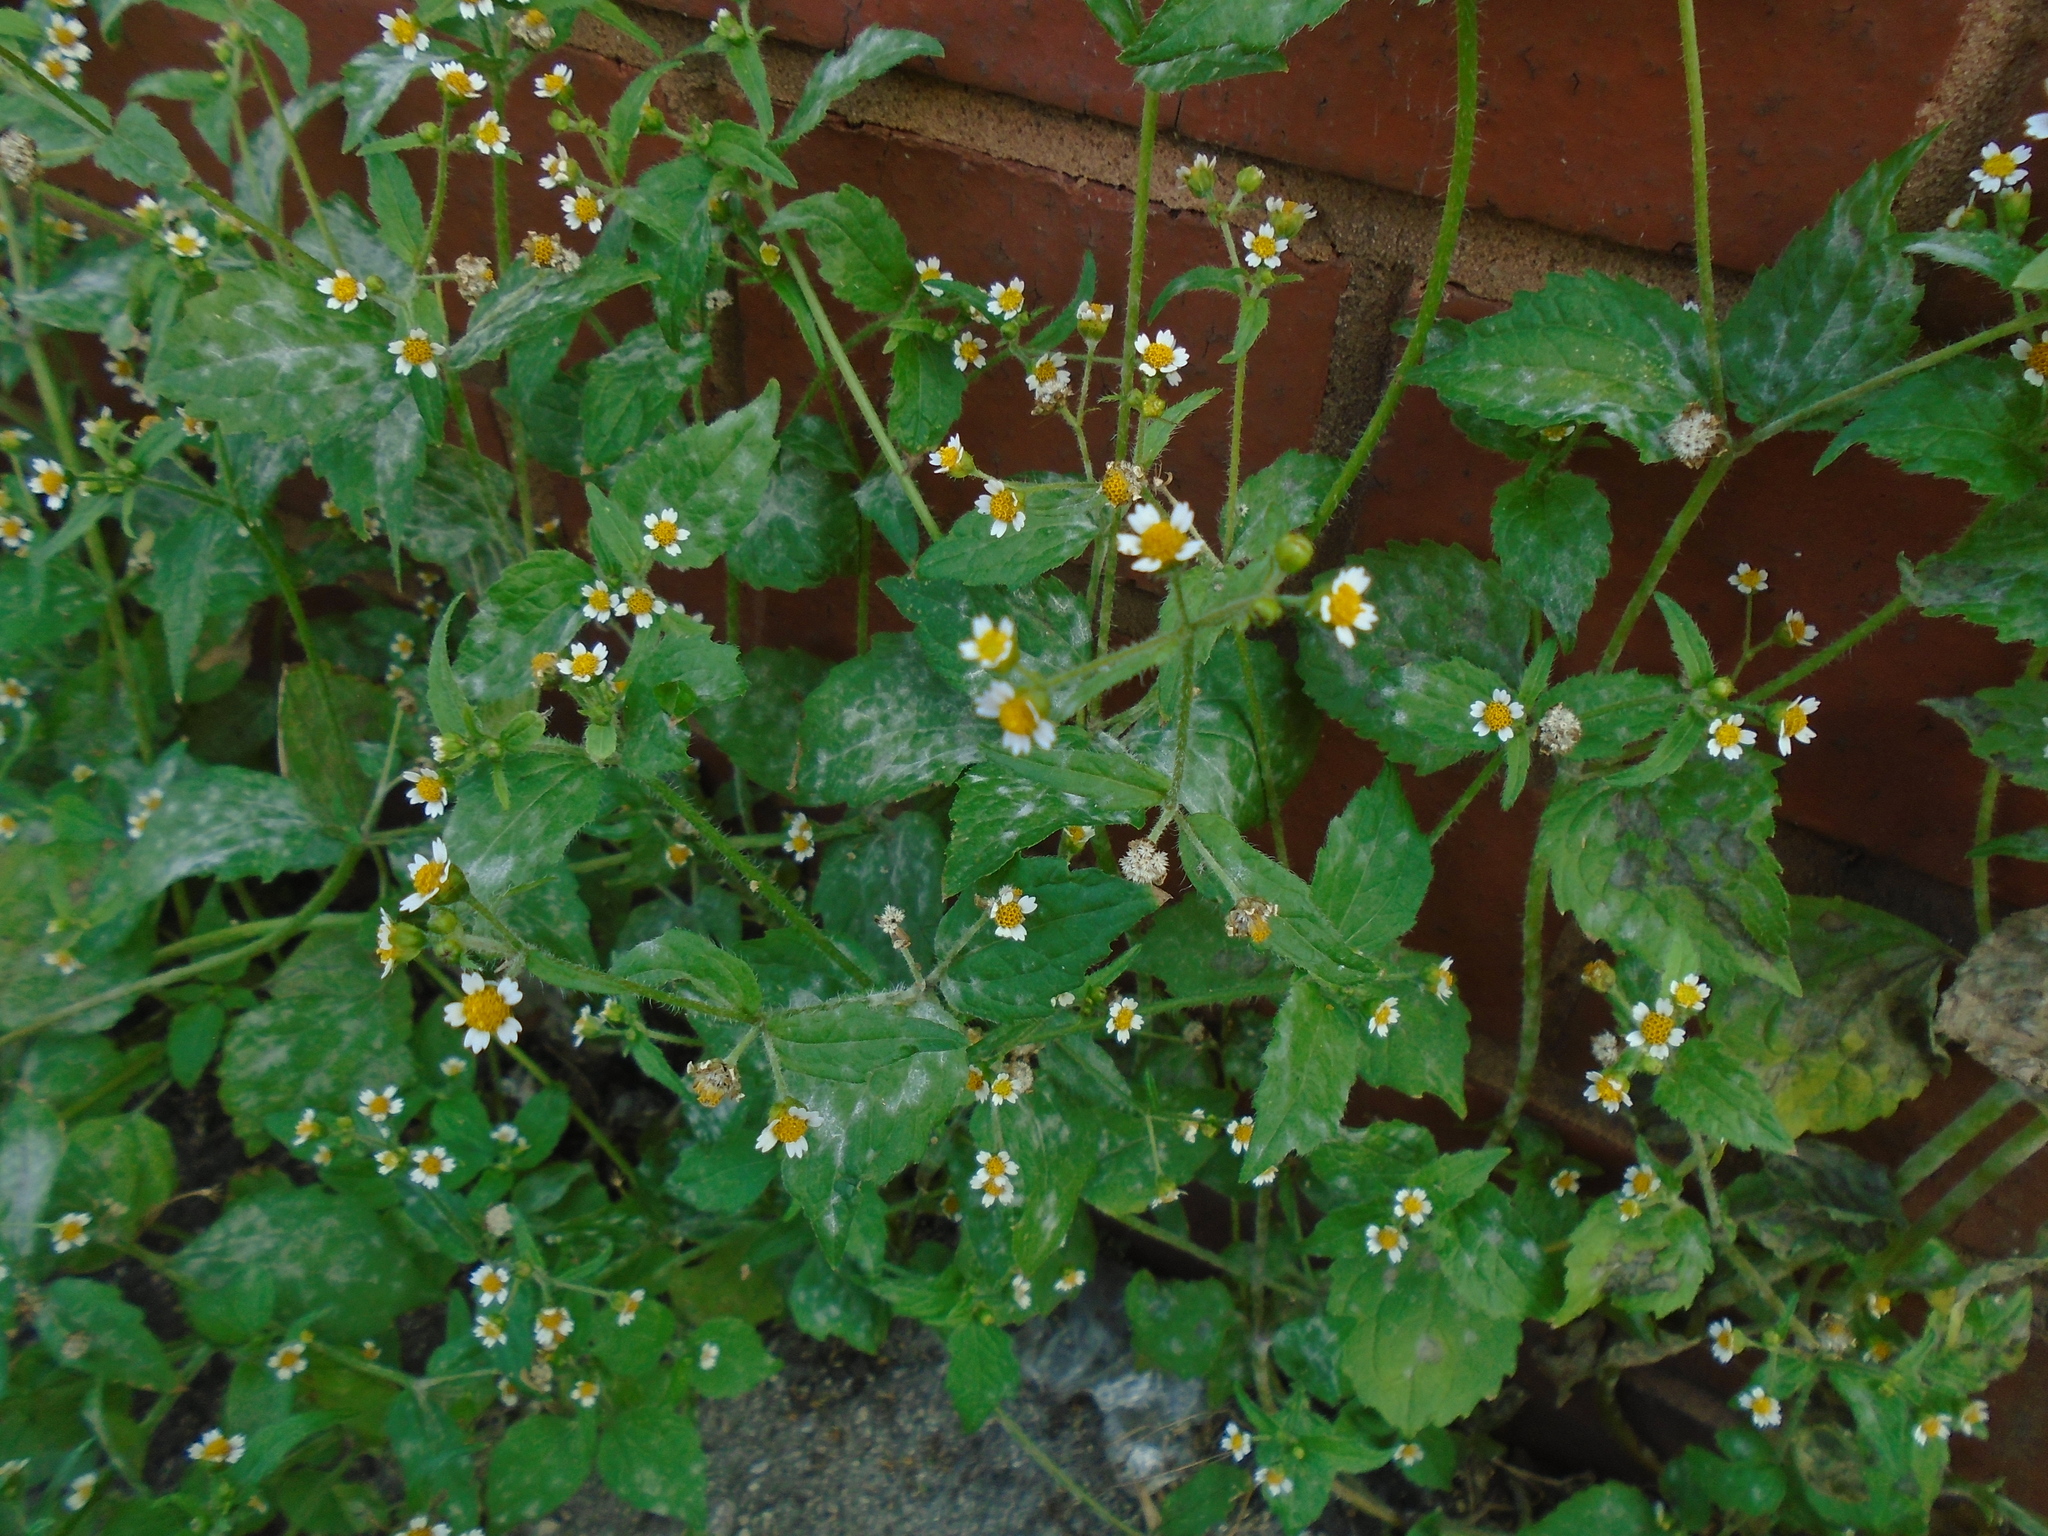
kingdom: Plantae
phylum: Tracheophyta
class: Magnoliopsida
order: Asterales
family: Asteraceae
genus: Galinsoga
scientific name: Galinsoga quadriradiata
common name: Shaggy soldier
